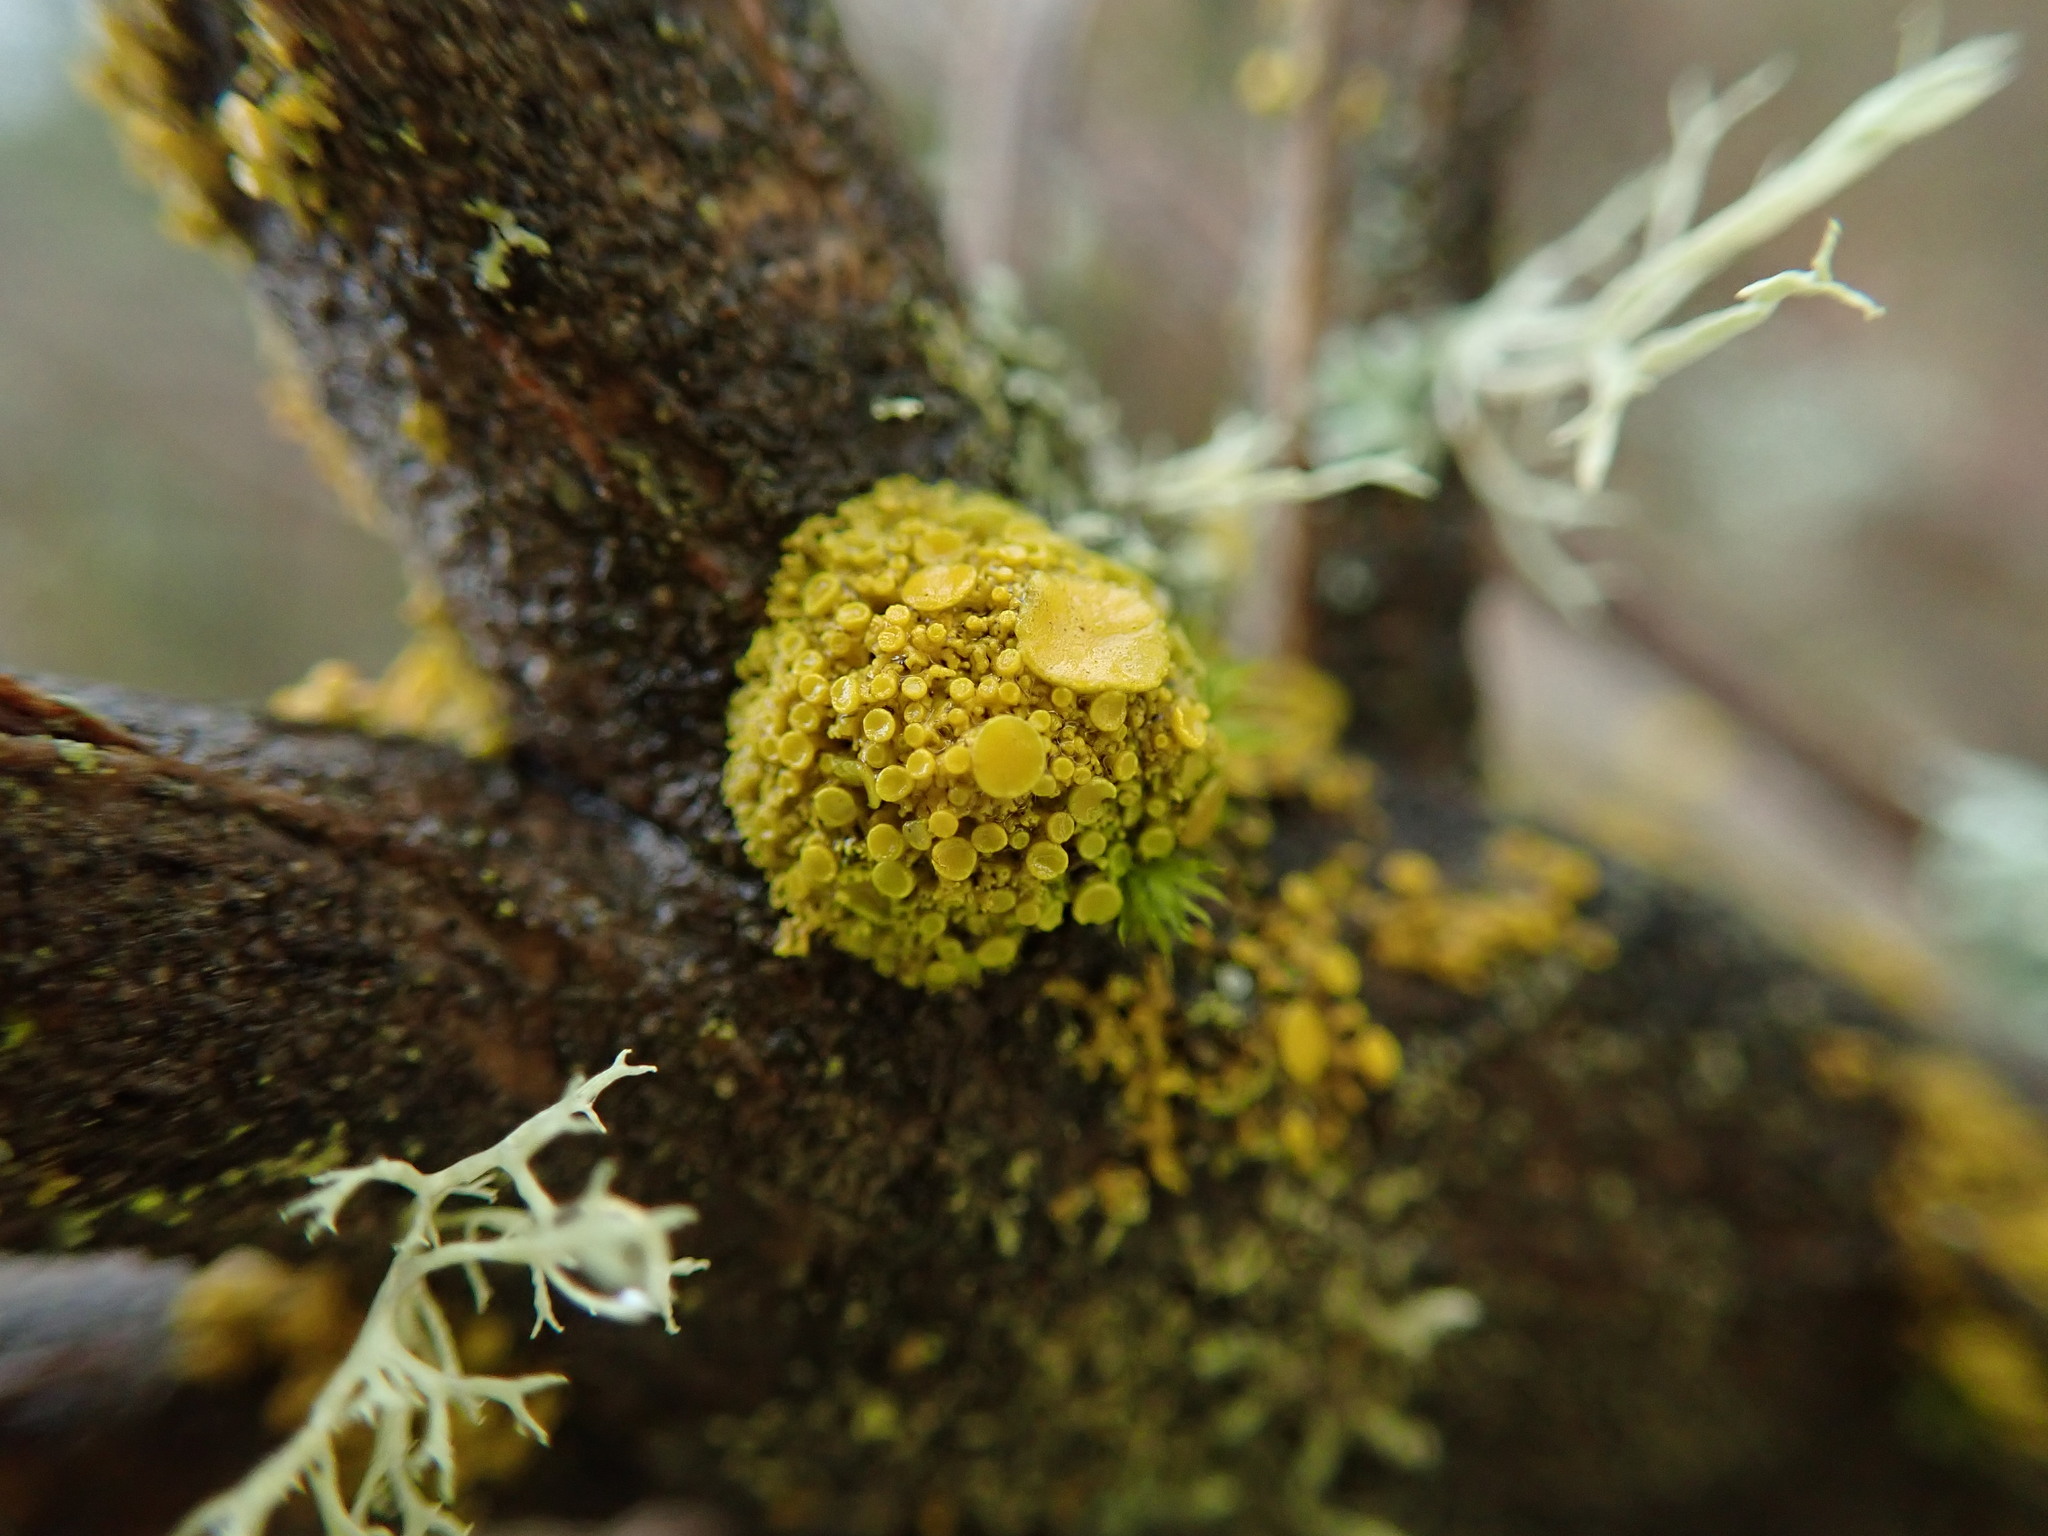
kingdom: Fungi
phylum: Ascomycota
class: Lecanoromycetes
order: Teloschistales
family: Teloschistaceae
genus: Polycauliona
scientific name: Polycauliona polycarpa
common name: Pin-cushion sunburst lichen
